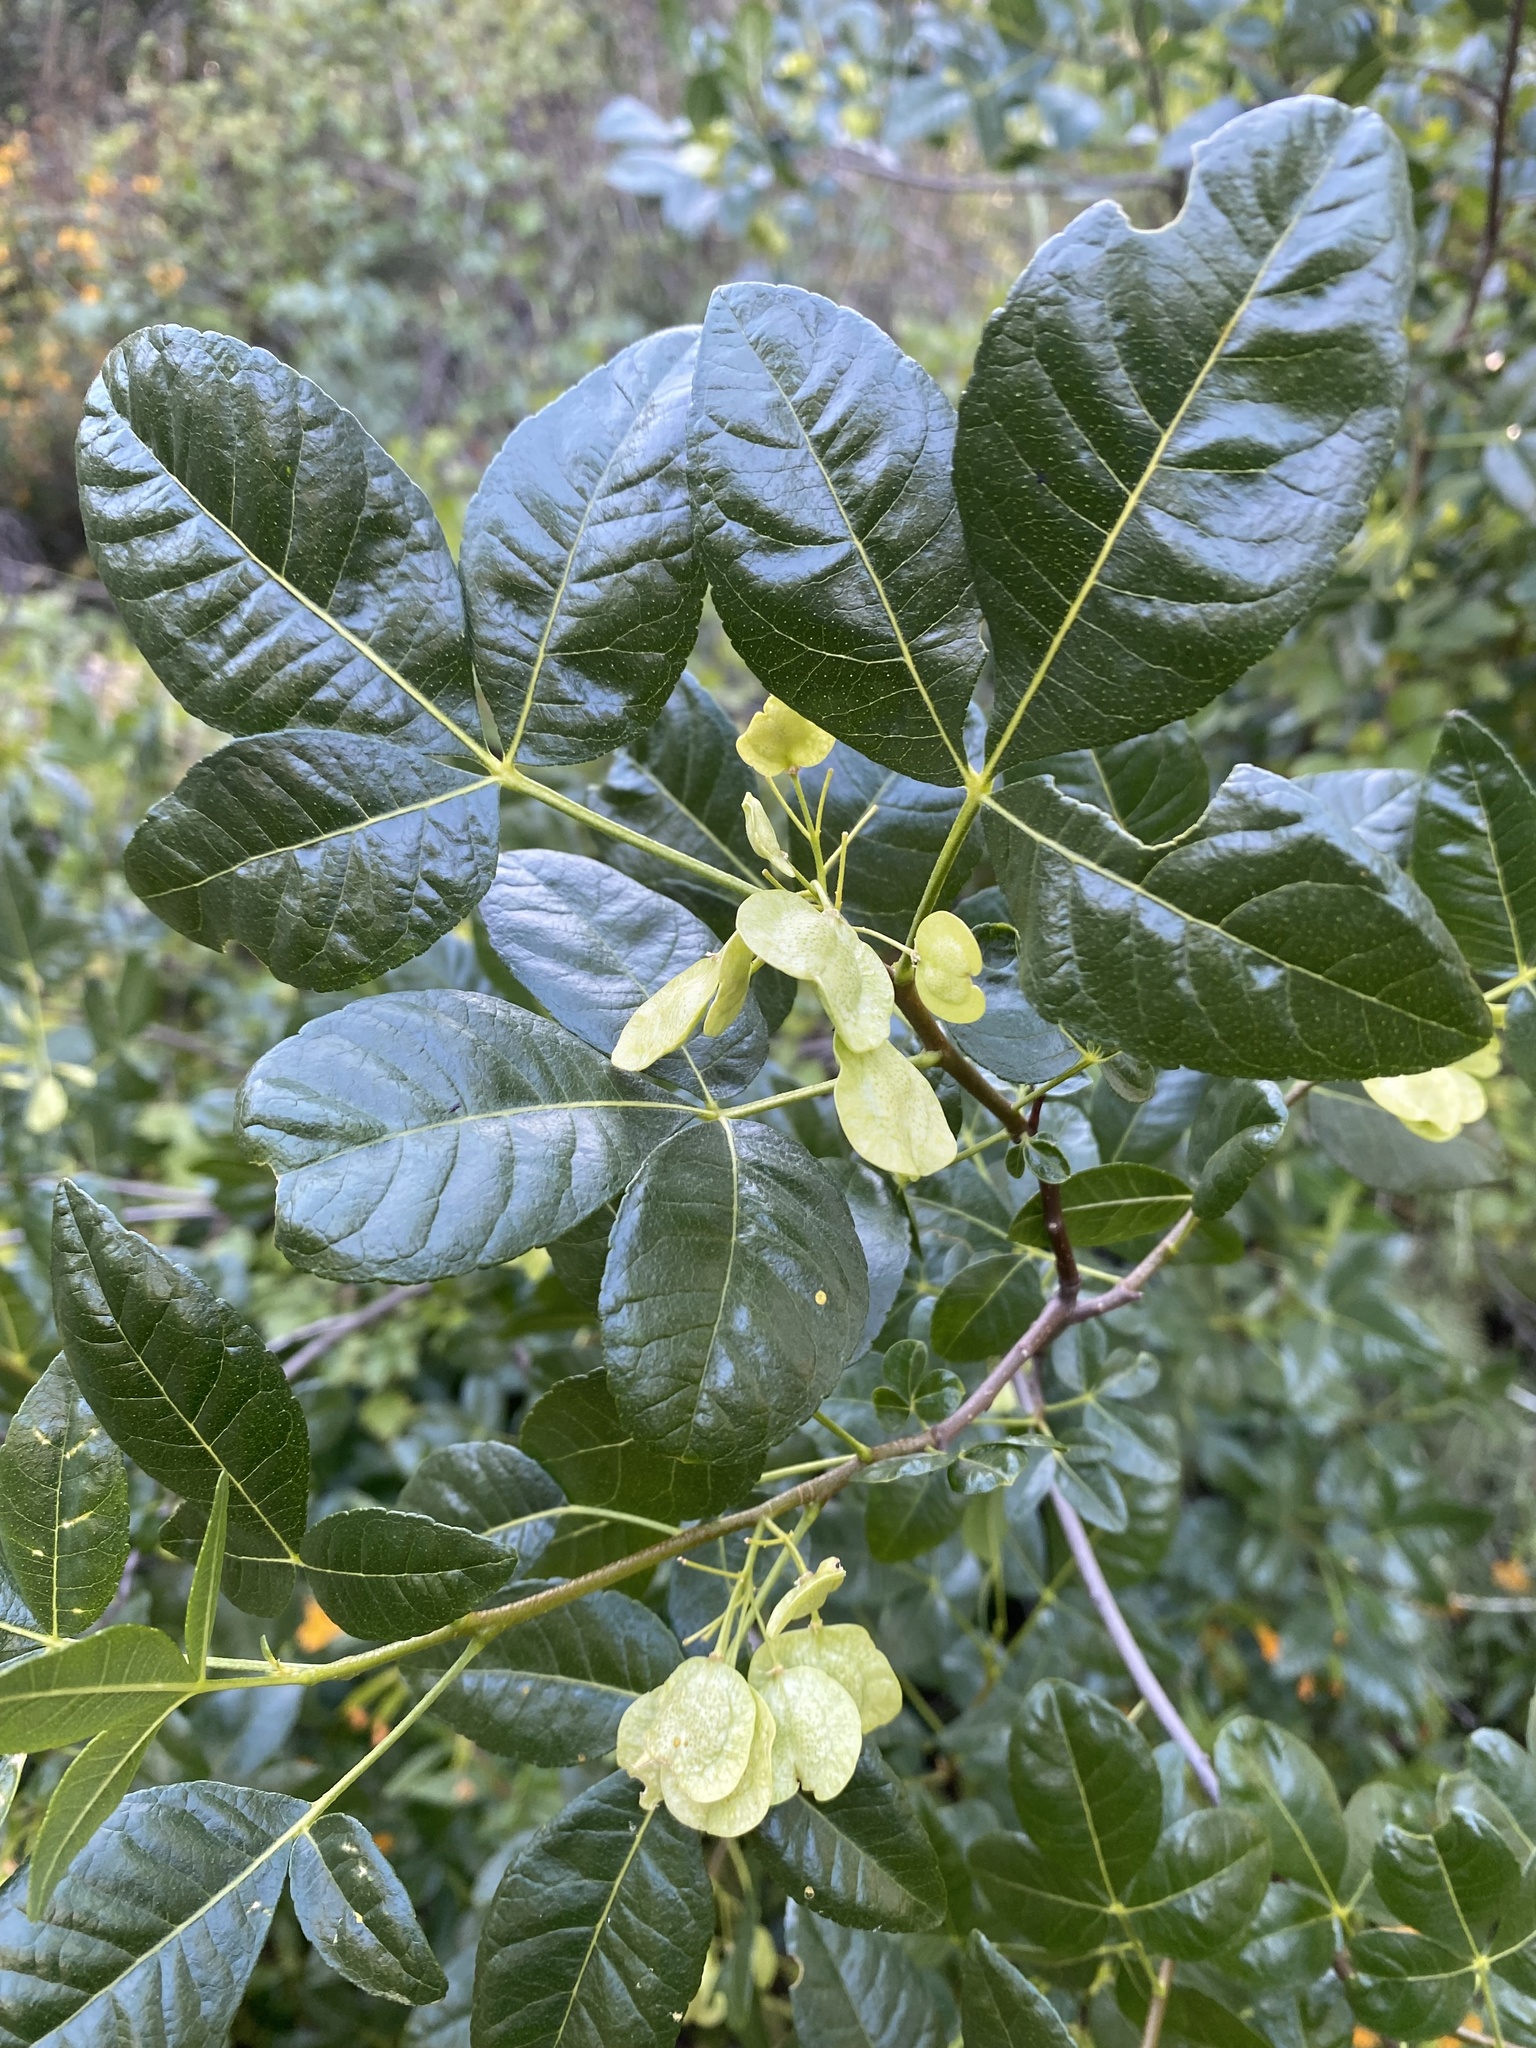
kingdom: Plantae
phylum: Tracheophyta
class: Magnoliopsida
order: Sapindales
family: Rutaceae
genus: Ptelea
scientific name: Ptelea crenulata
